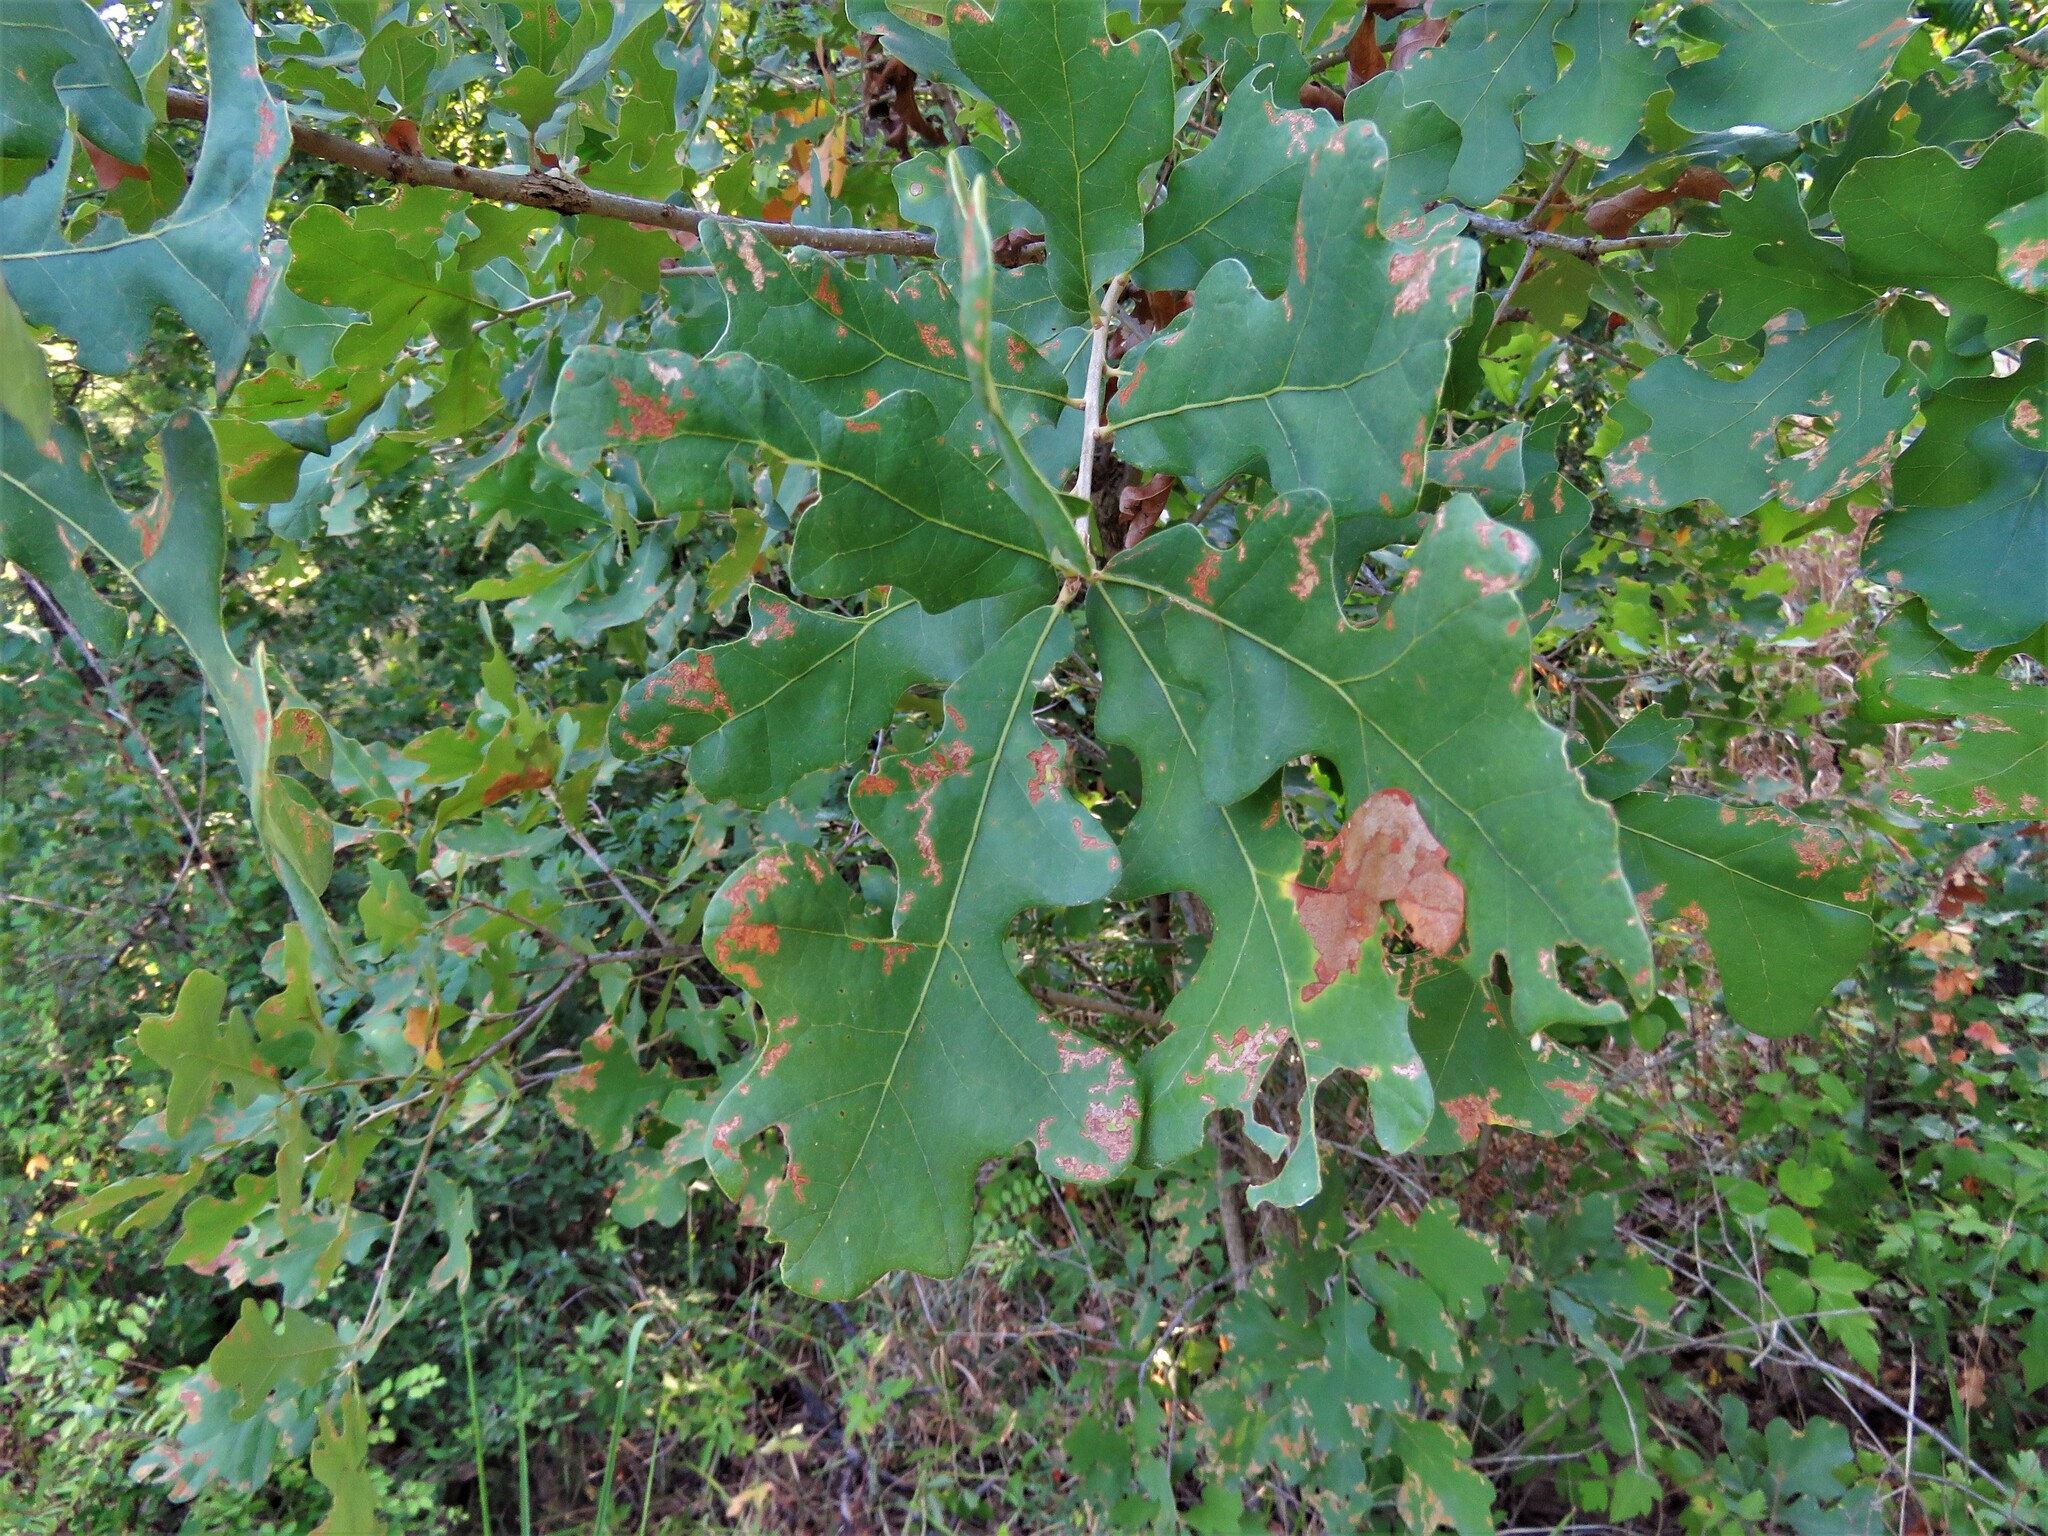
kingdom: Plantae
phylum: Tracheophyta
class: Magnoliopsida
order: Fagales
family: Fagaceae
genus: Quercus
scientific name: Quercus stellata
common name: Post oak
